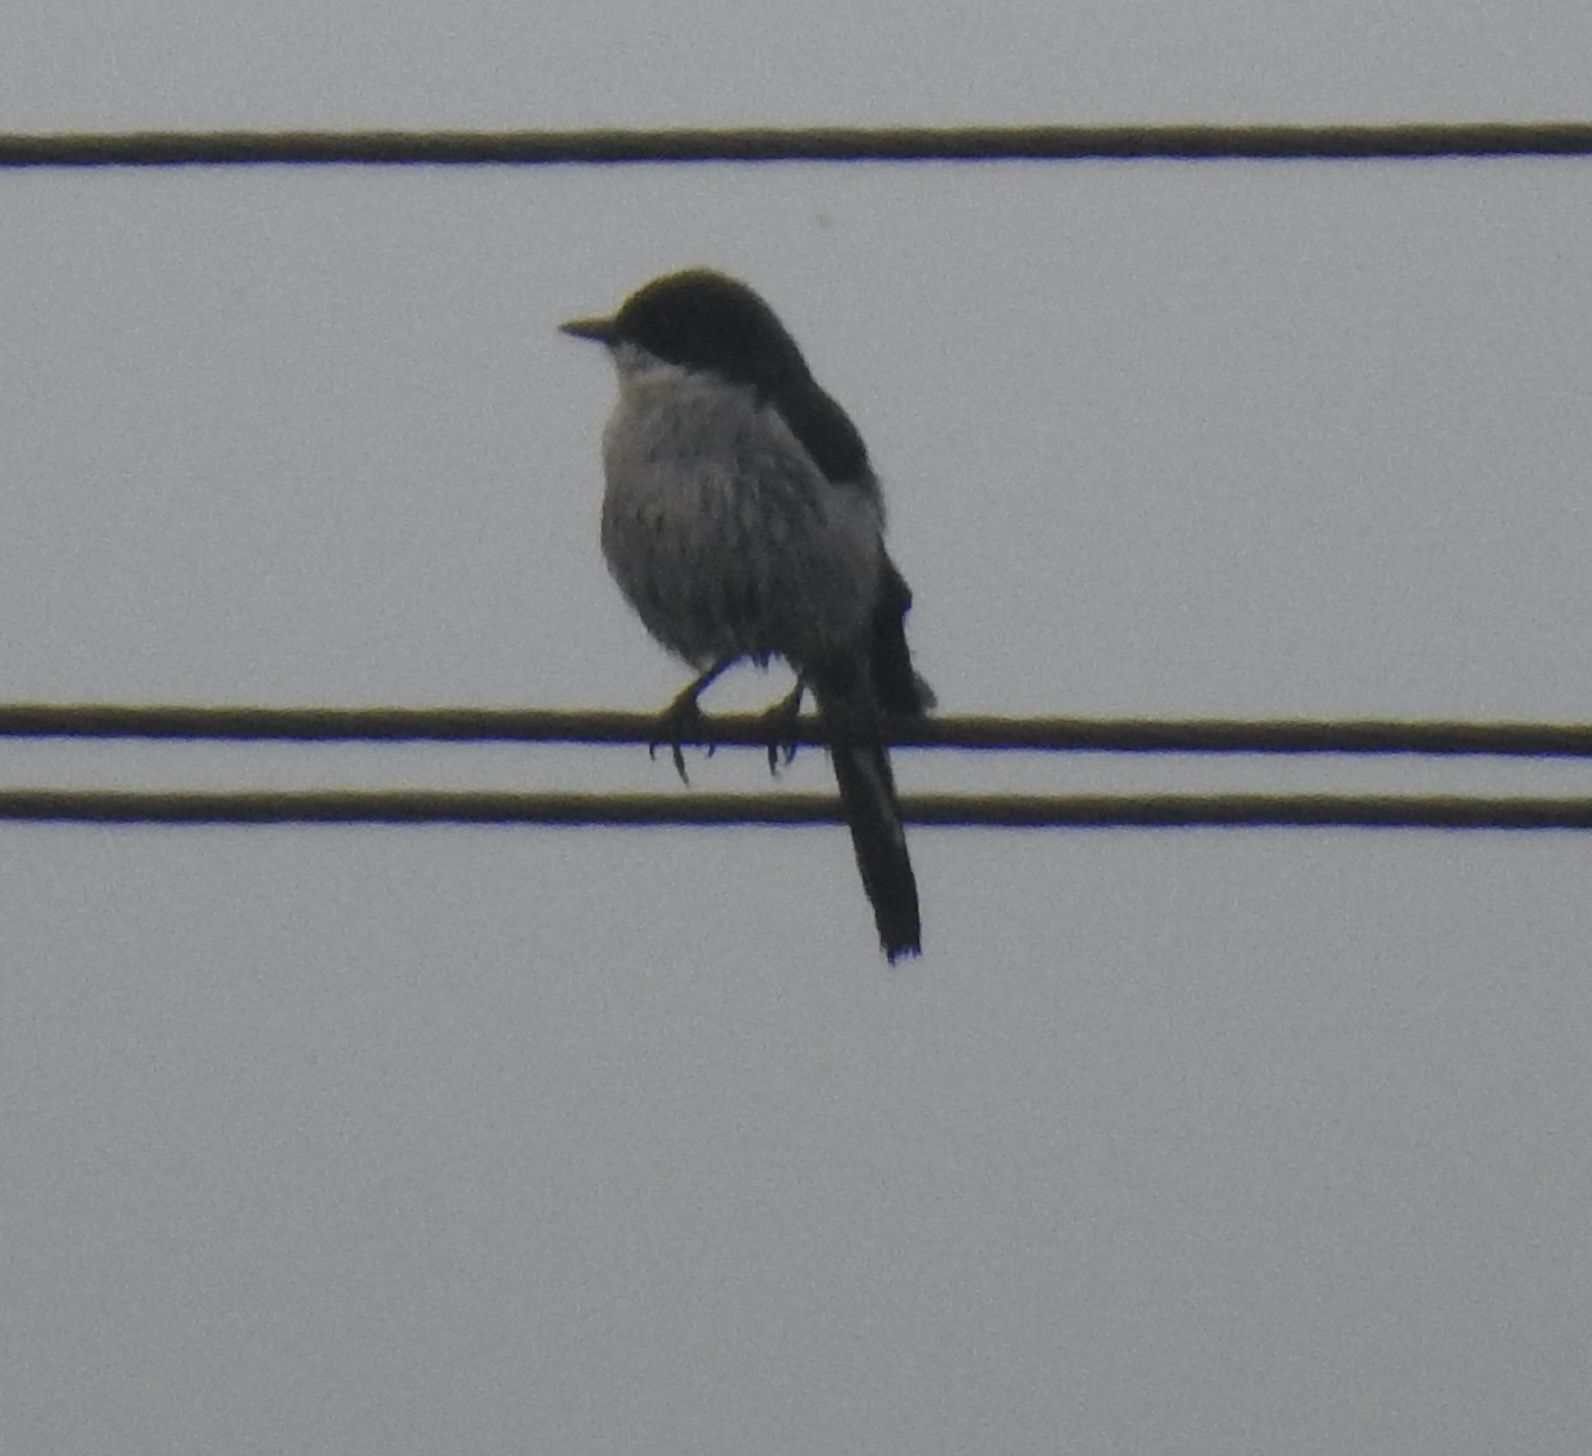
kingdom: Animalia
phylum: Chordata
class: Aves
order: Passeriformes
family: Muscicapidae
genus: Sigelus
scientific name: Sigelus silens
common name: Fiscal flycatcher
